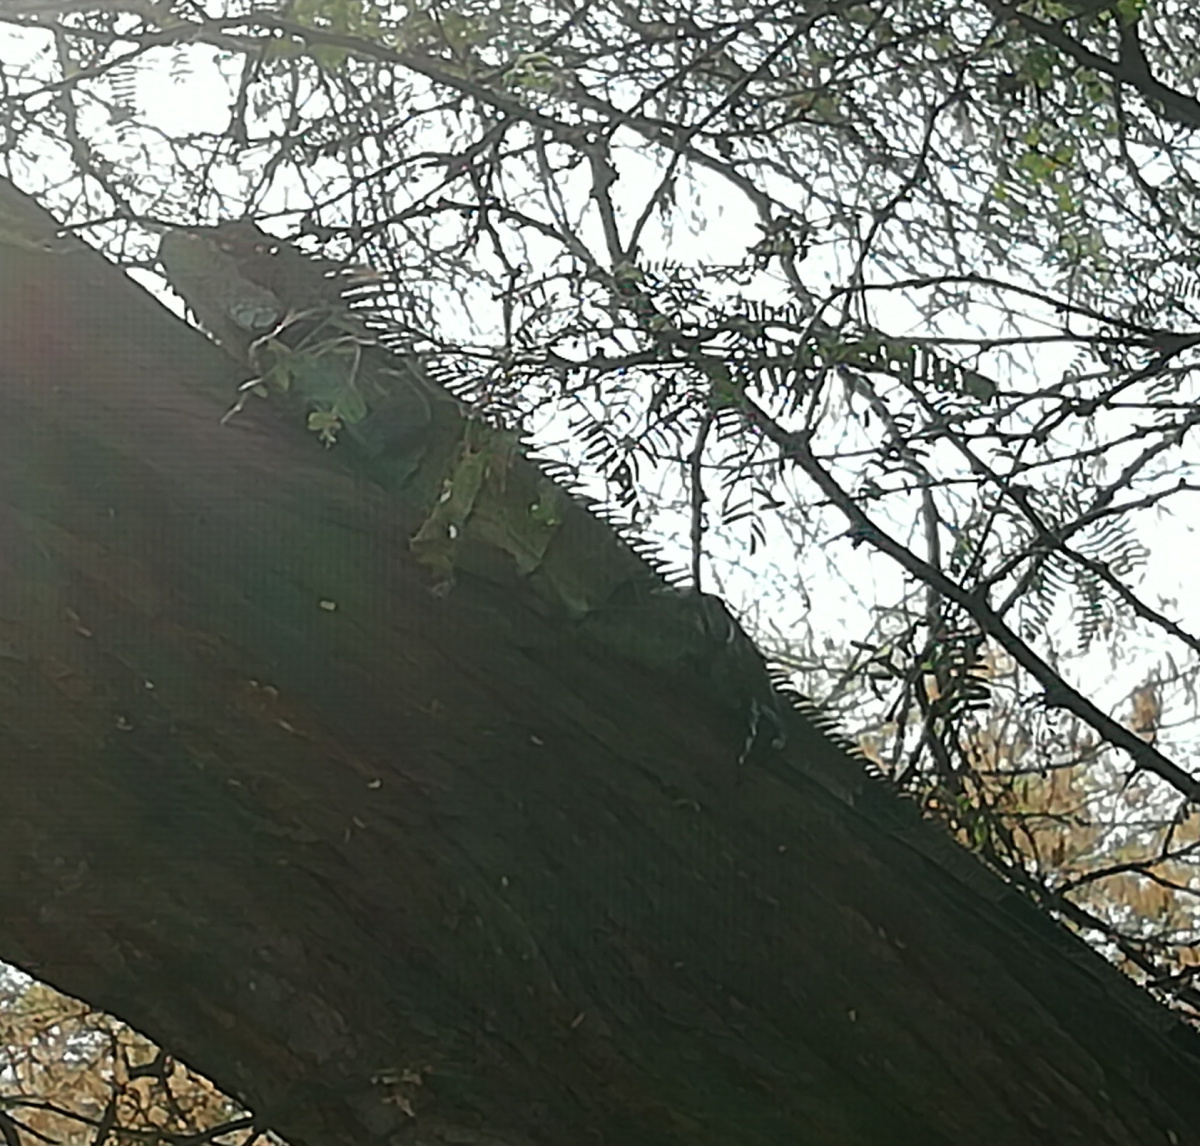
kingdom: Animalia
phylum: Chordata
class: Squamata
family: Iguanidae
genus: Iguana
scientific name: Iguana iguana
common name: Green iguana
